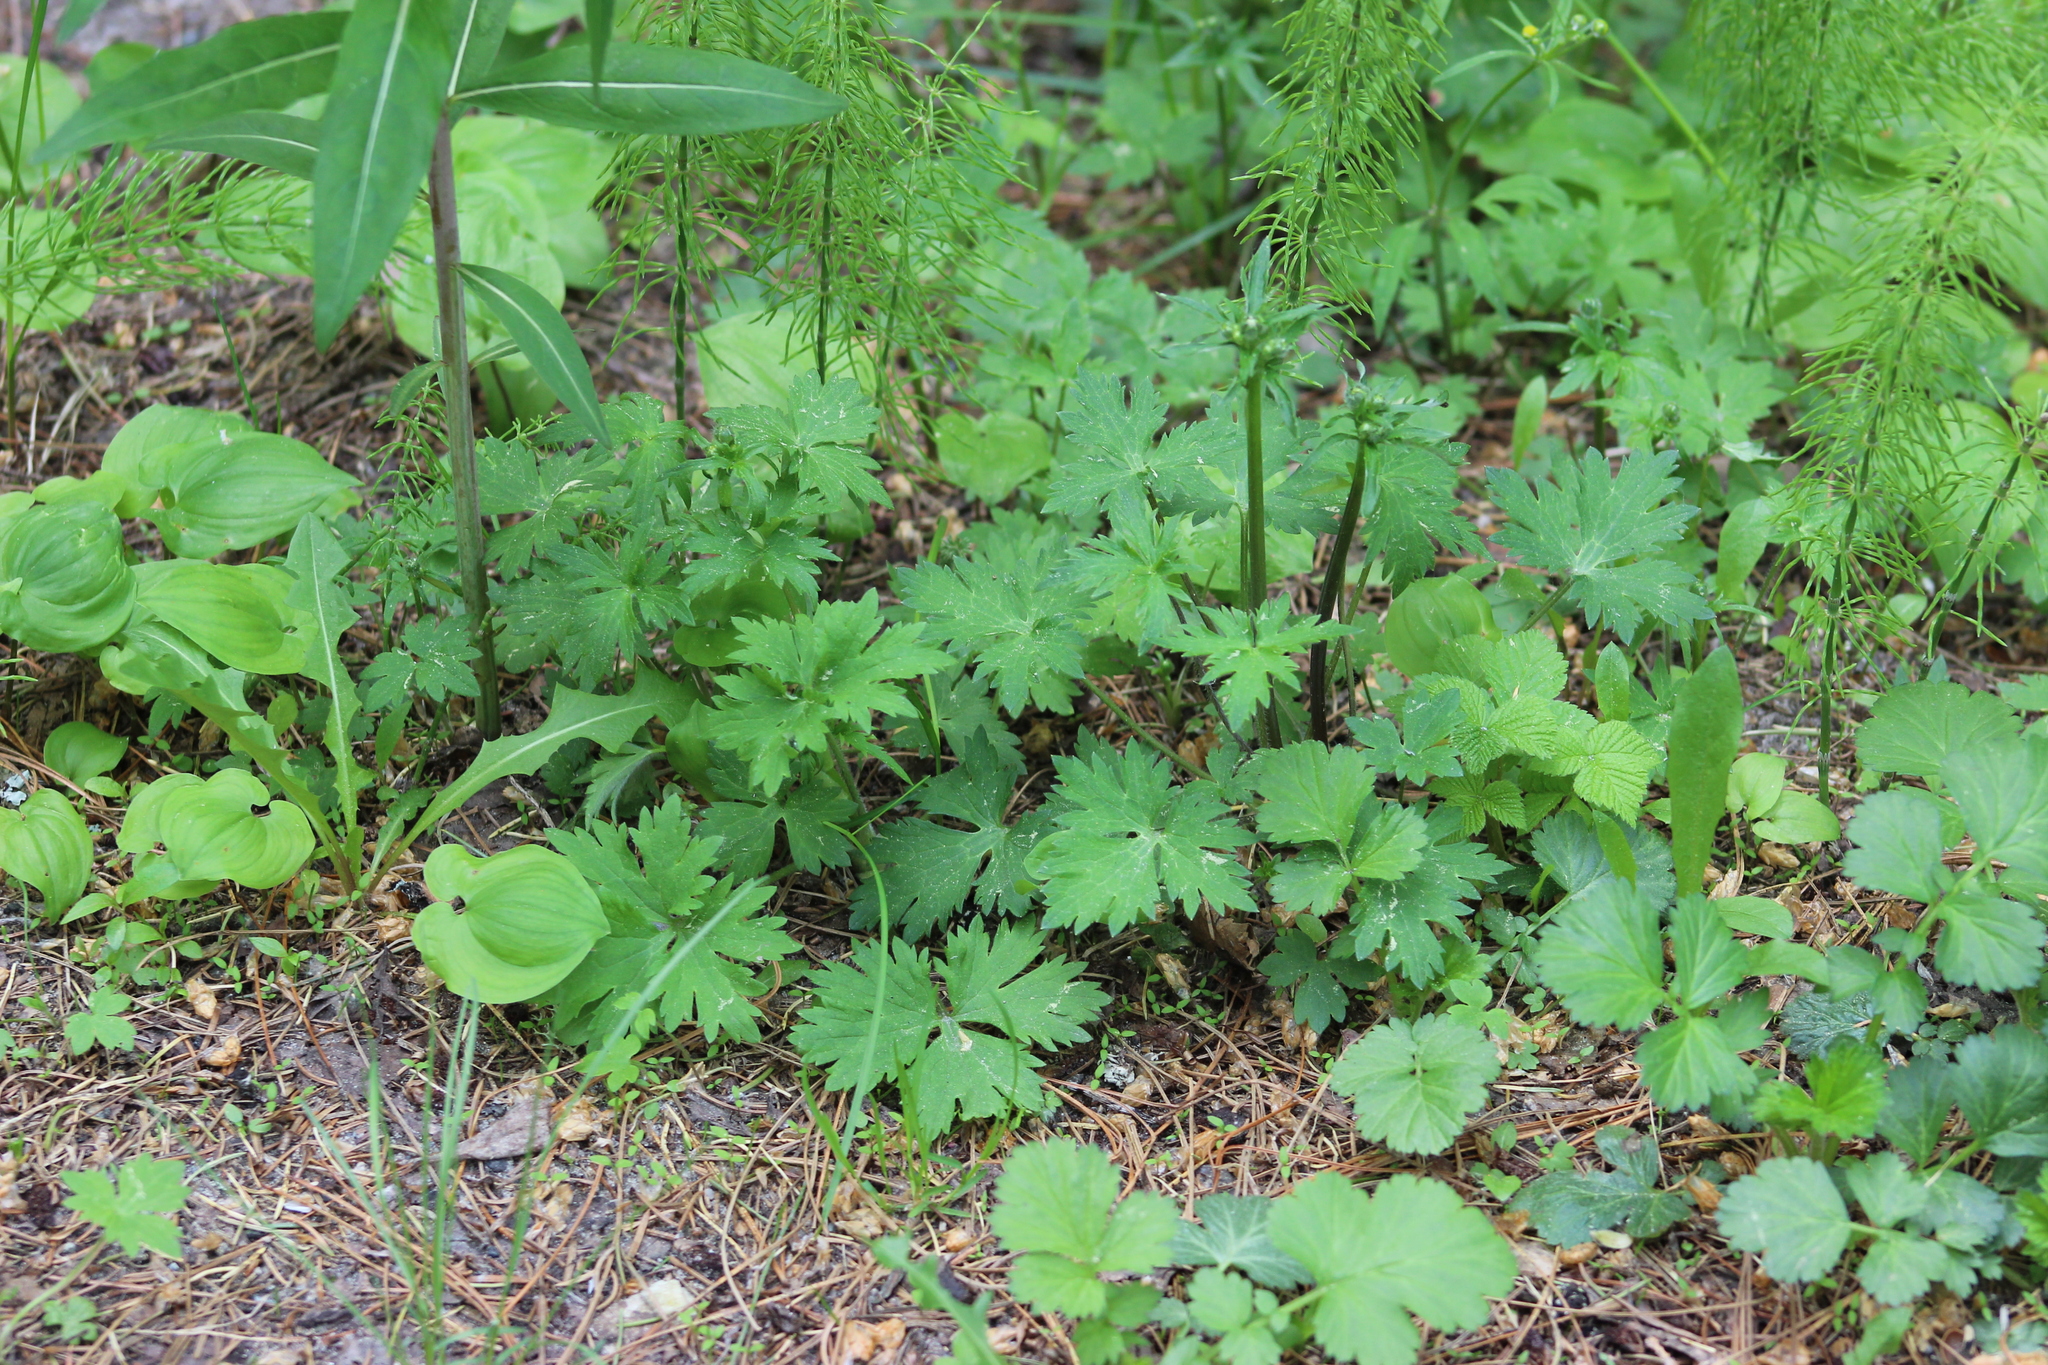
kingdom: Plantae
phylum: Tracheophyta
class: Magnoliopsida
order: Ranunculales
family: Ranunculaceae
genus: Ranunculus
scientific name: Ranunculus propinquus
